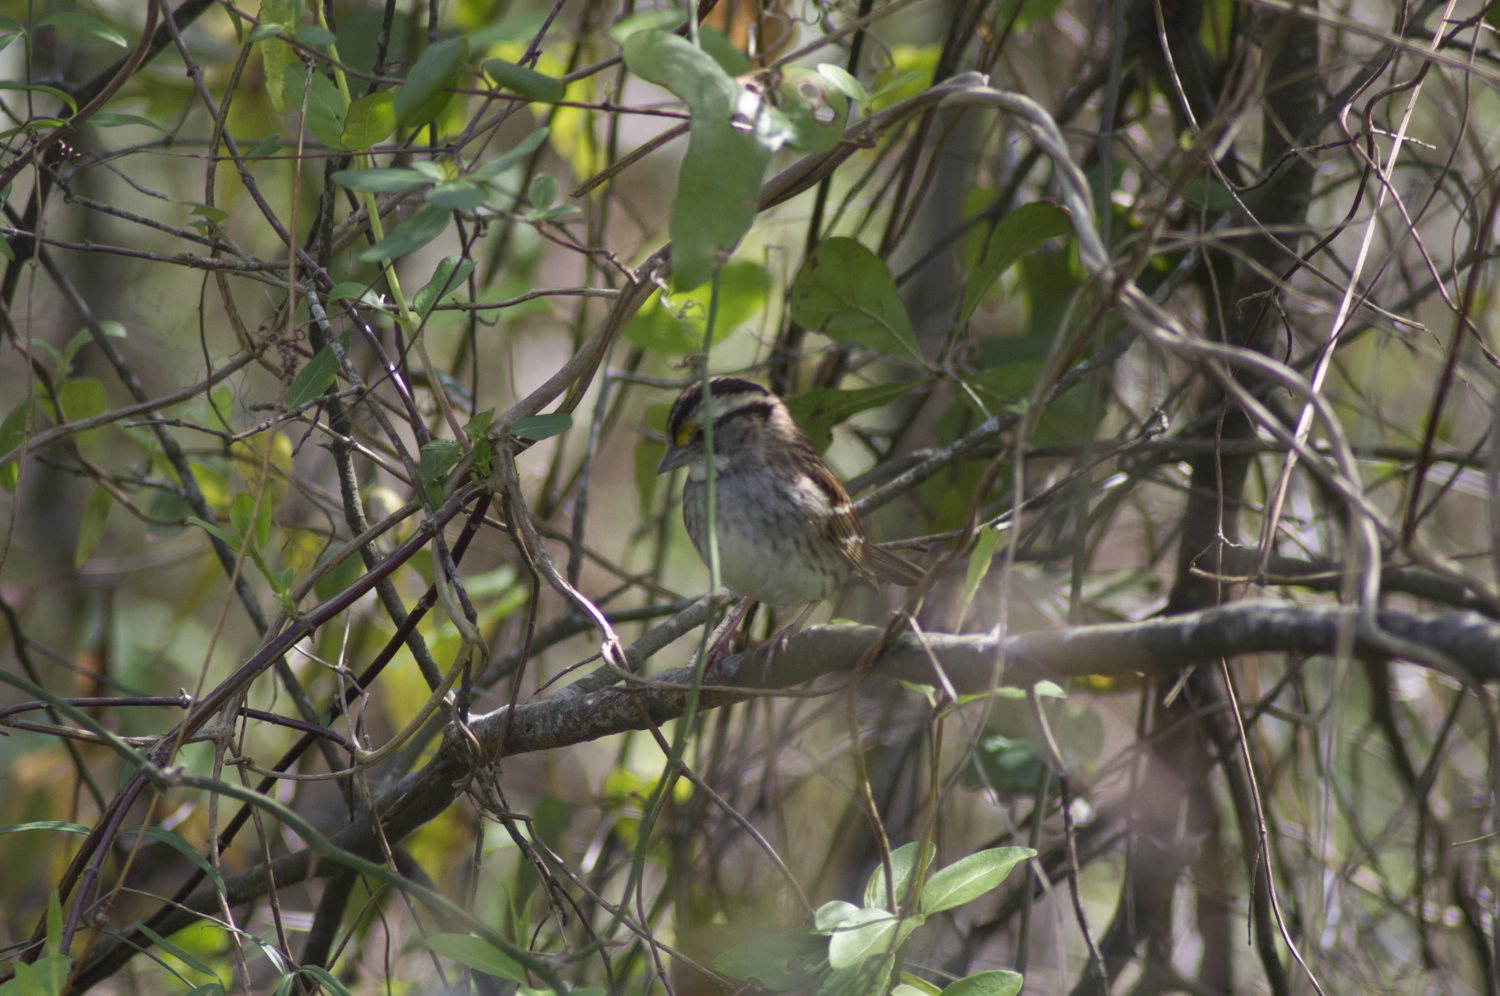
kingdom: Animalia
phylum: Chordata
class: Aves
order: Passeriformes
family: Passerellidae
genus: Zonotrichia
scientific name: Zonotrichia albicollis
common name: White-throated sparrow
